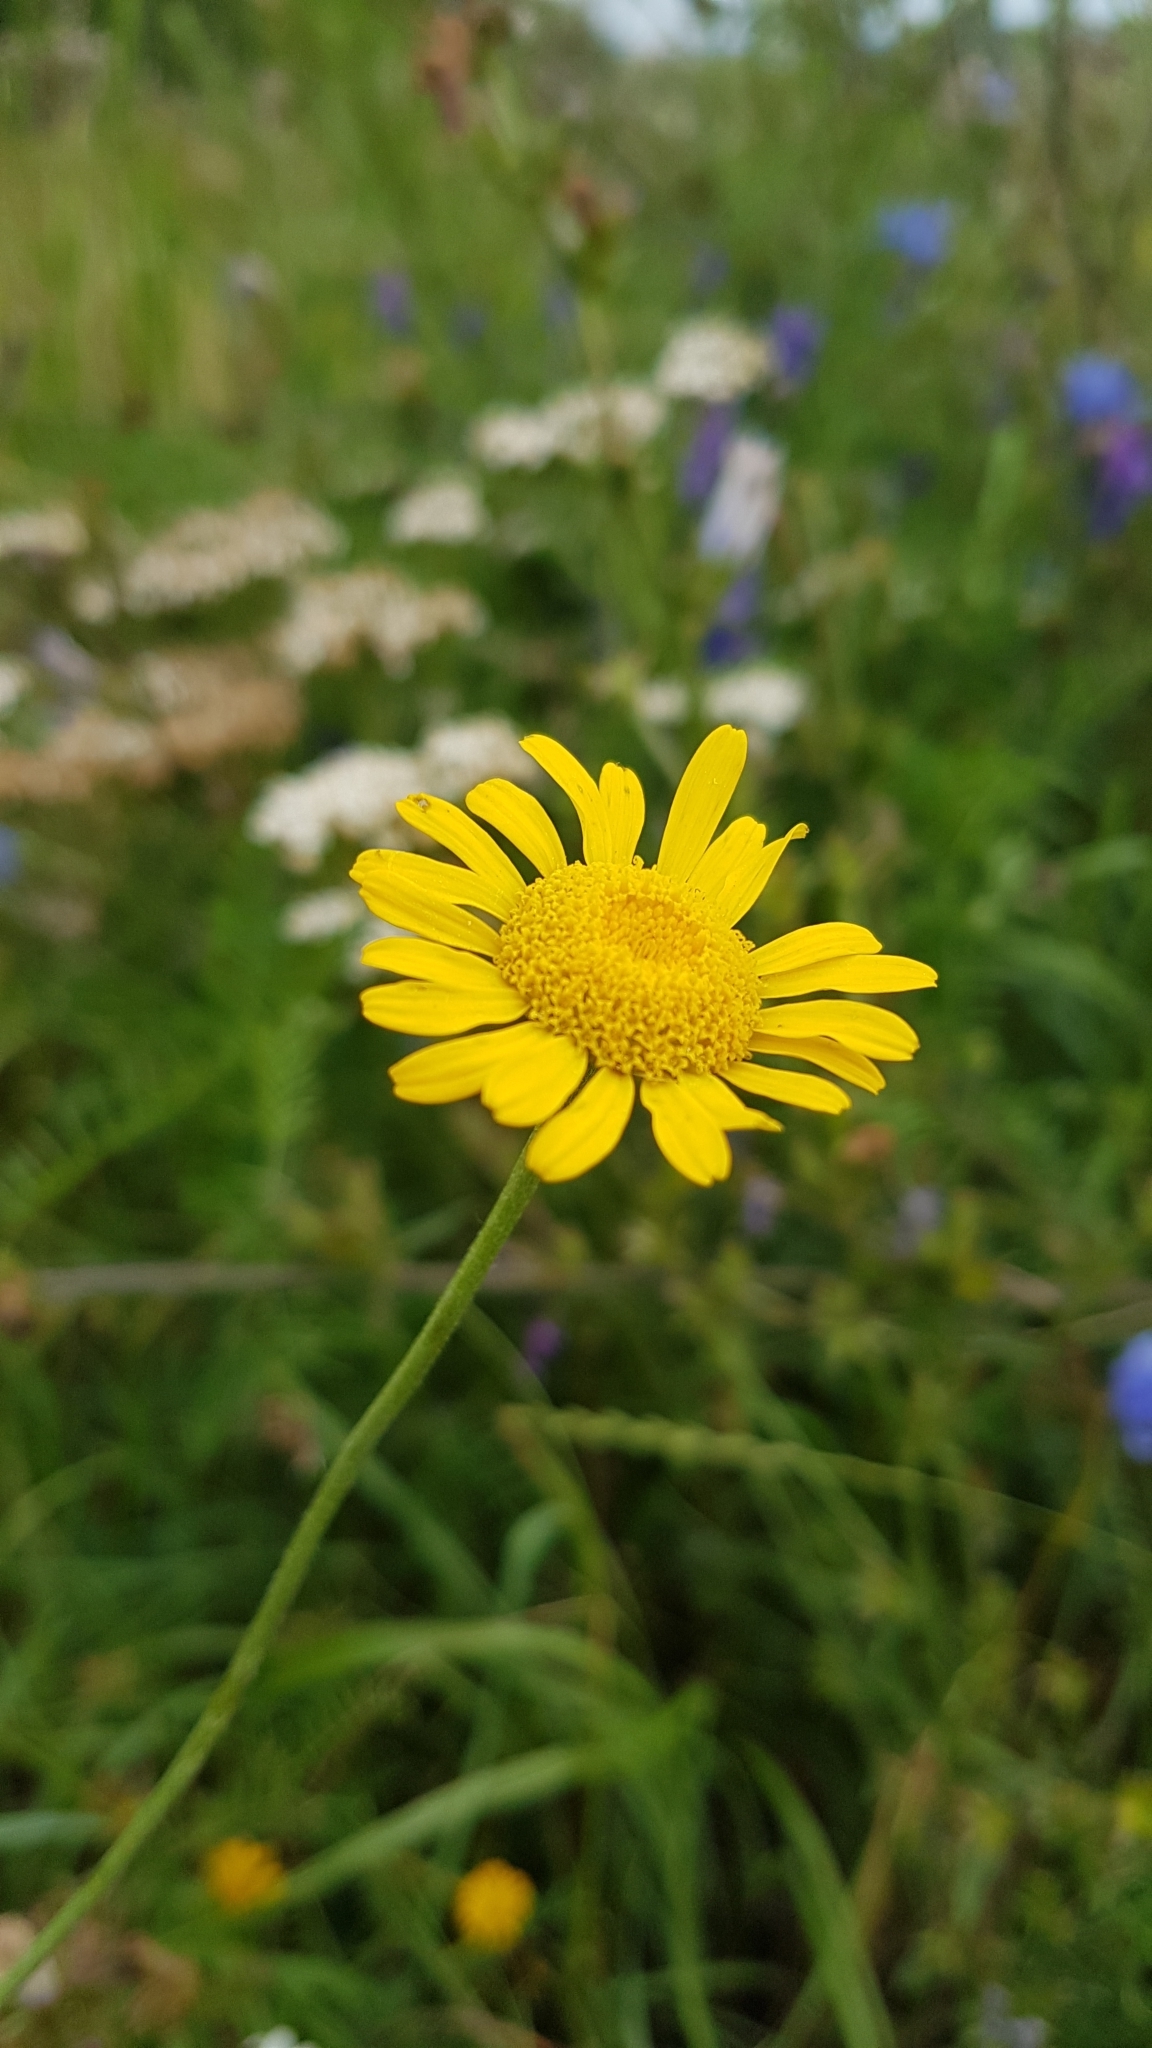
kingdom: Plantae
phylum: Tracheophyta
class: Magnoliopsida
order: Asterales
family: Asteraceae
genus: Cota
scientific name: Cota tinctoria
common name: Golden chamomile
